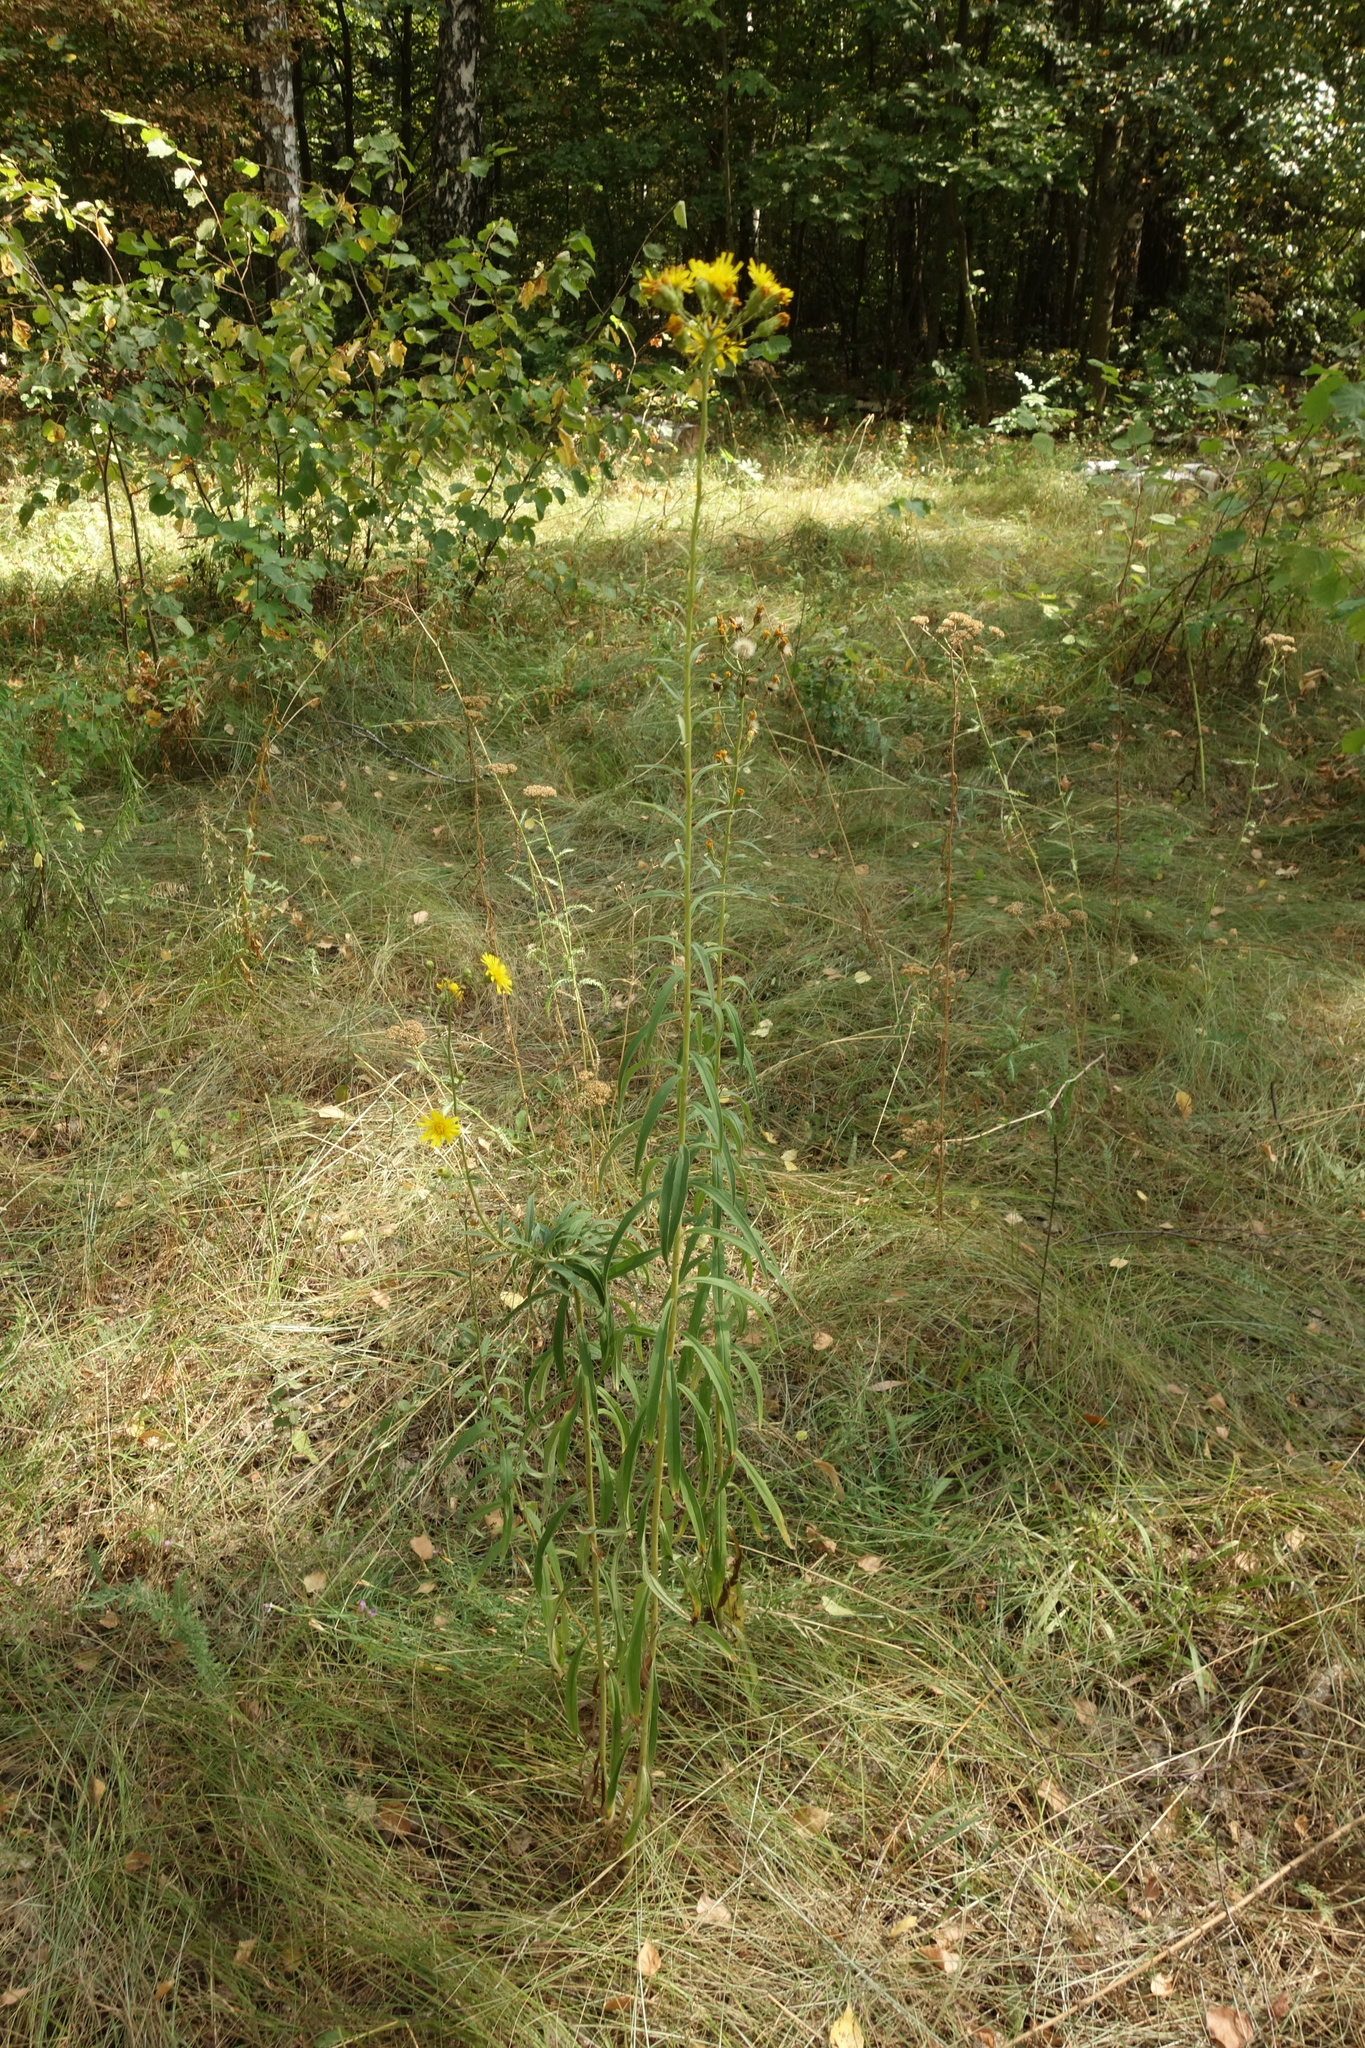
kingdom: Plantae
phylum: Tracheophyta
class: Magnoliopsida
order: Asterales
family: Asteraceae
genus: Hieracium
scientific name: Hieracium umbellatum
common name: Northern hawkweed
